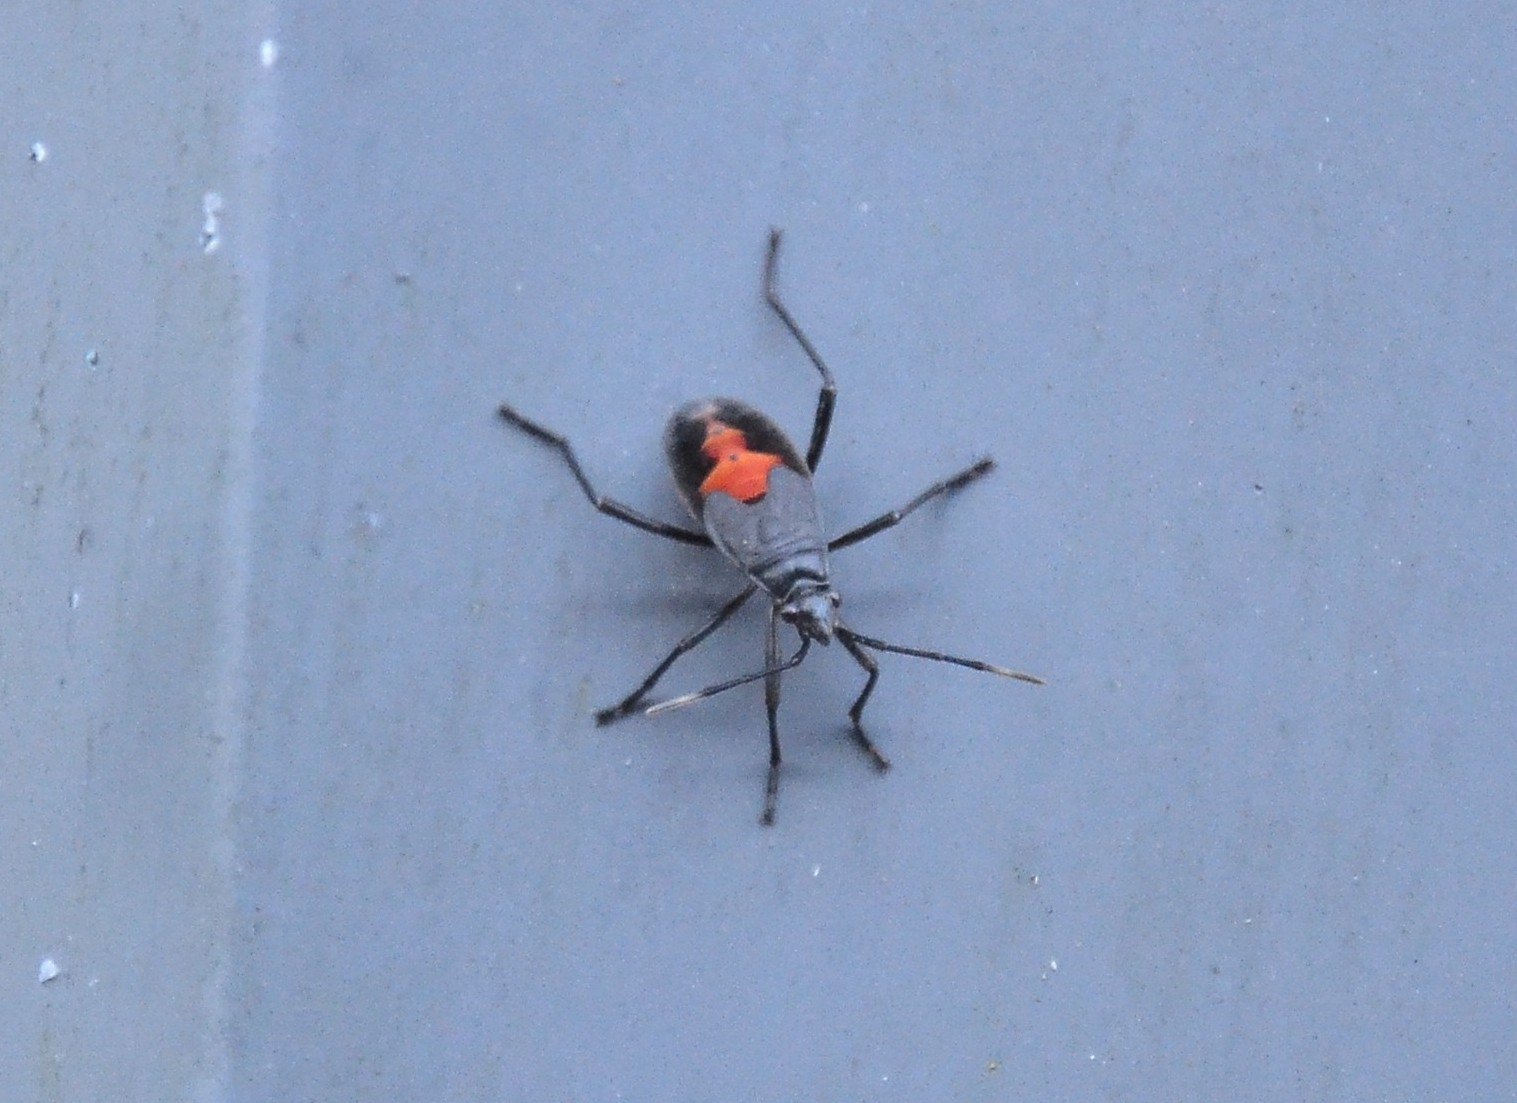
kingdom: Animalia
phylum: Arthropoda
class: Insecta
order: Hemiptera
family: Pyrrhocoridae
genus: Melamphaus
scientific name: Melamphaus
